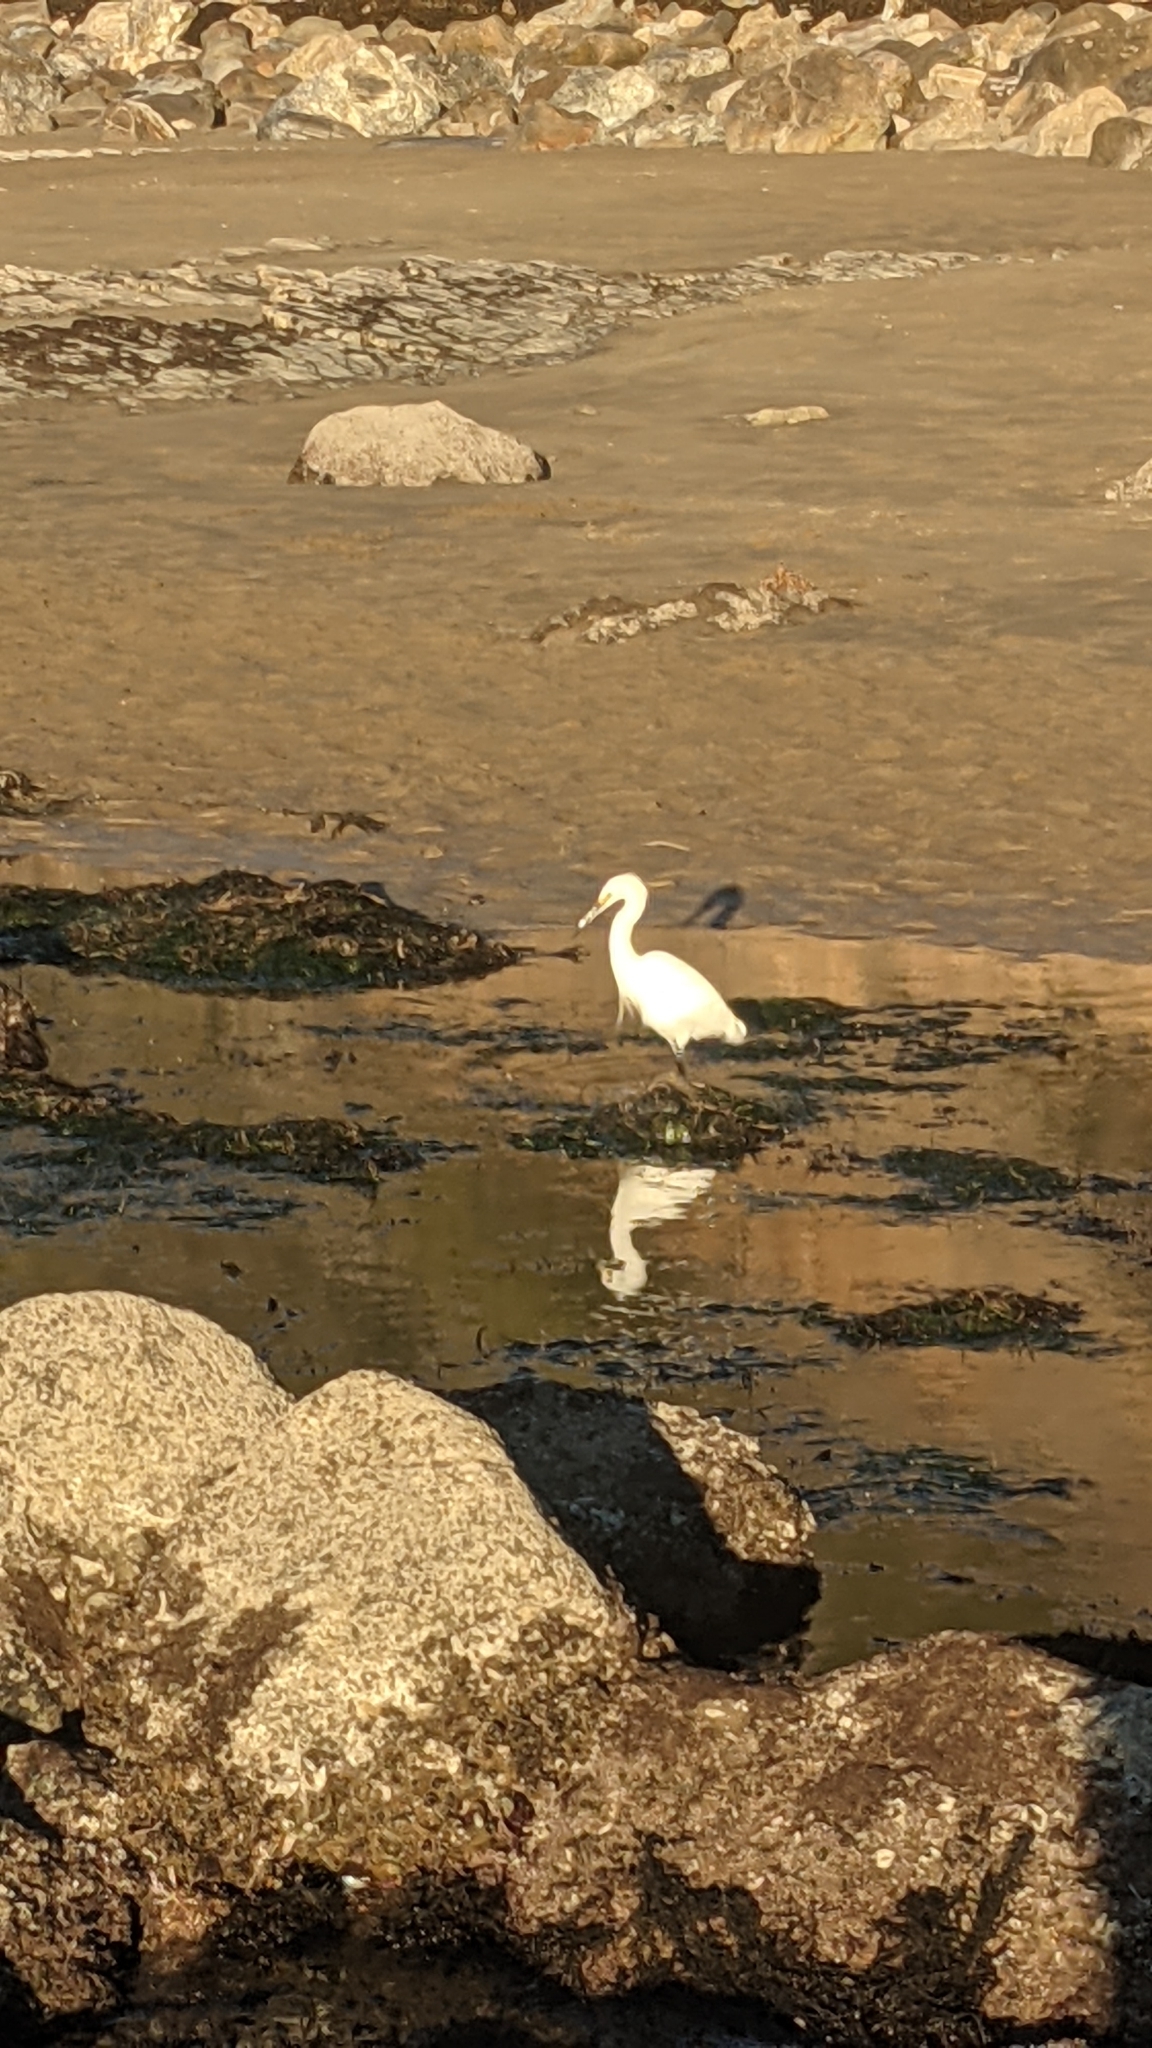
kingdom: Animalia
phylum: Chordata
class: Aves
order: Pelecaniformes
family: Ardeidae
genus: Egretta
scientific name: Egretta thula
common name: Snowy egret
